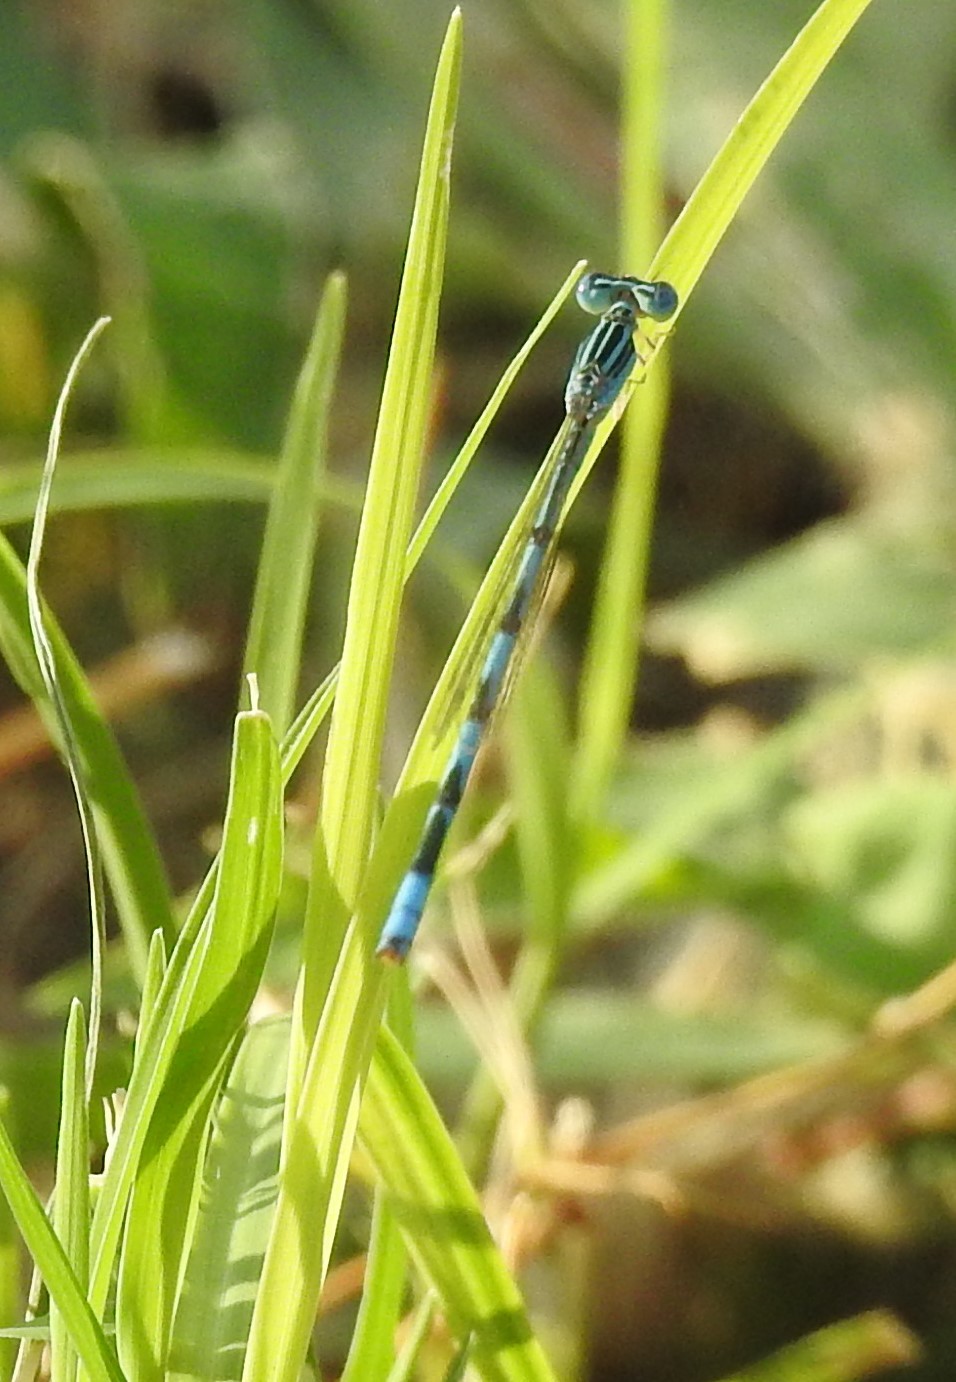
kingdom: Animalia
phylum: Arthropoda
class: Insecta
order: Odonata
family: Coenagrionidae
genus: Enallagma
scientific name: Enallagma basidens
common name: Double-striped bluet
